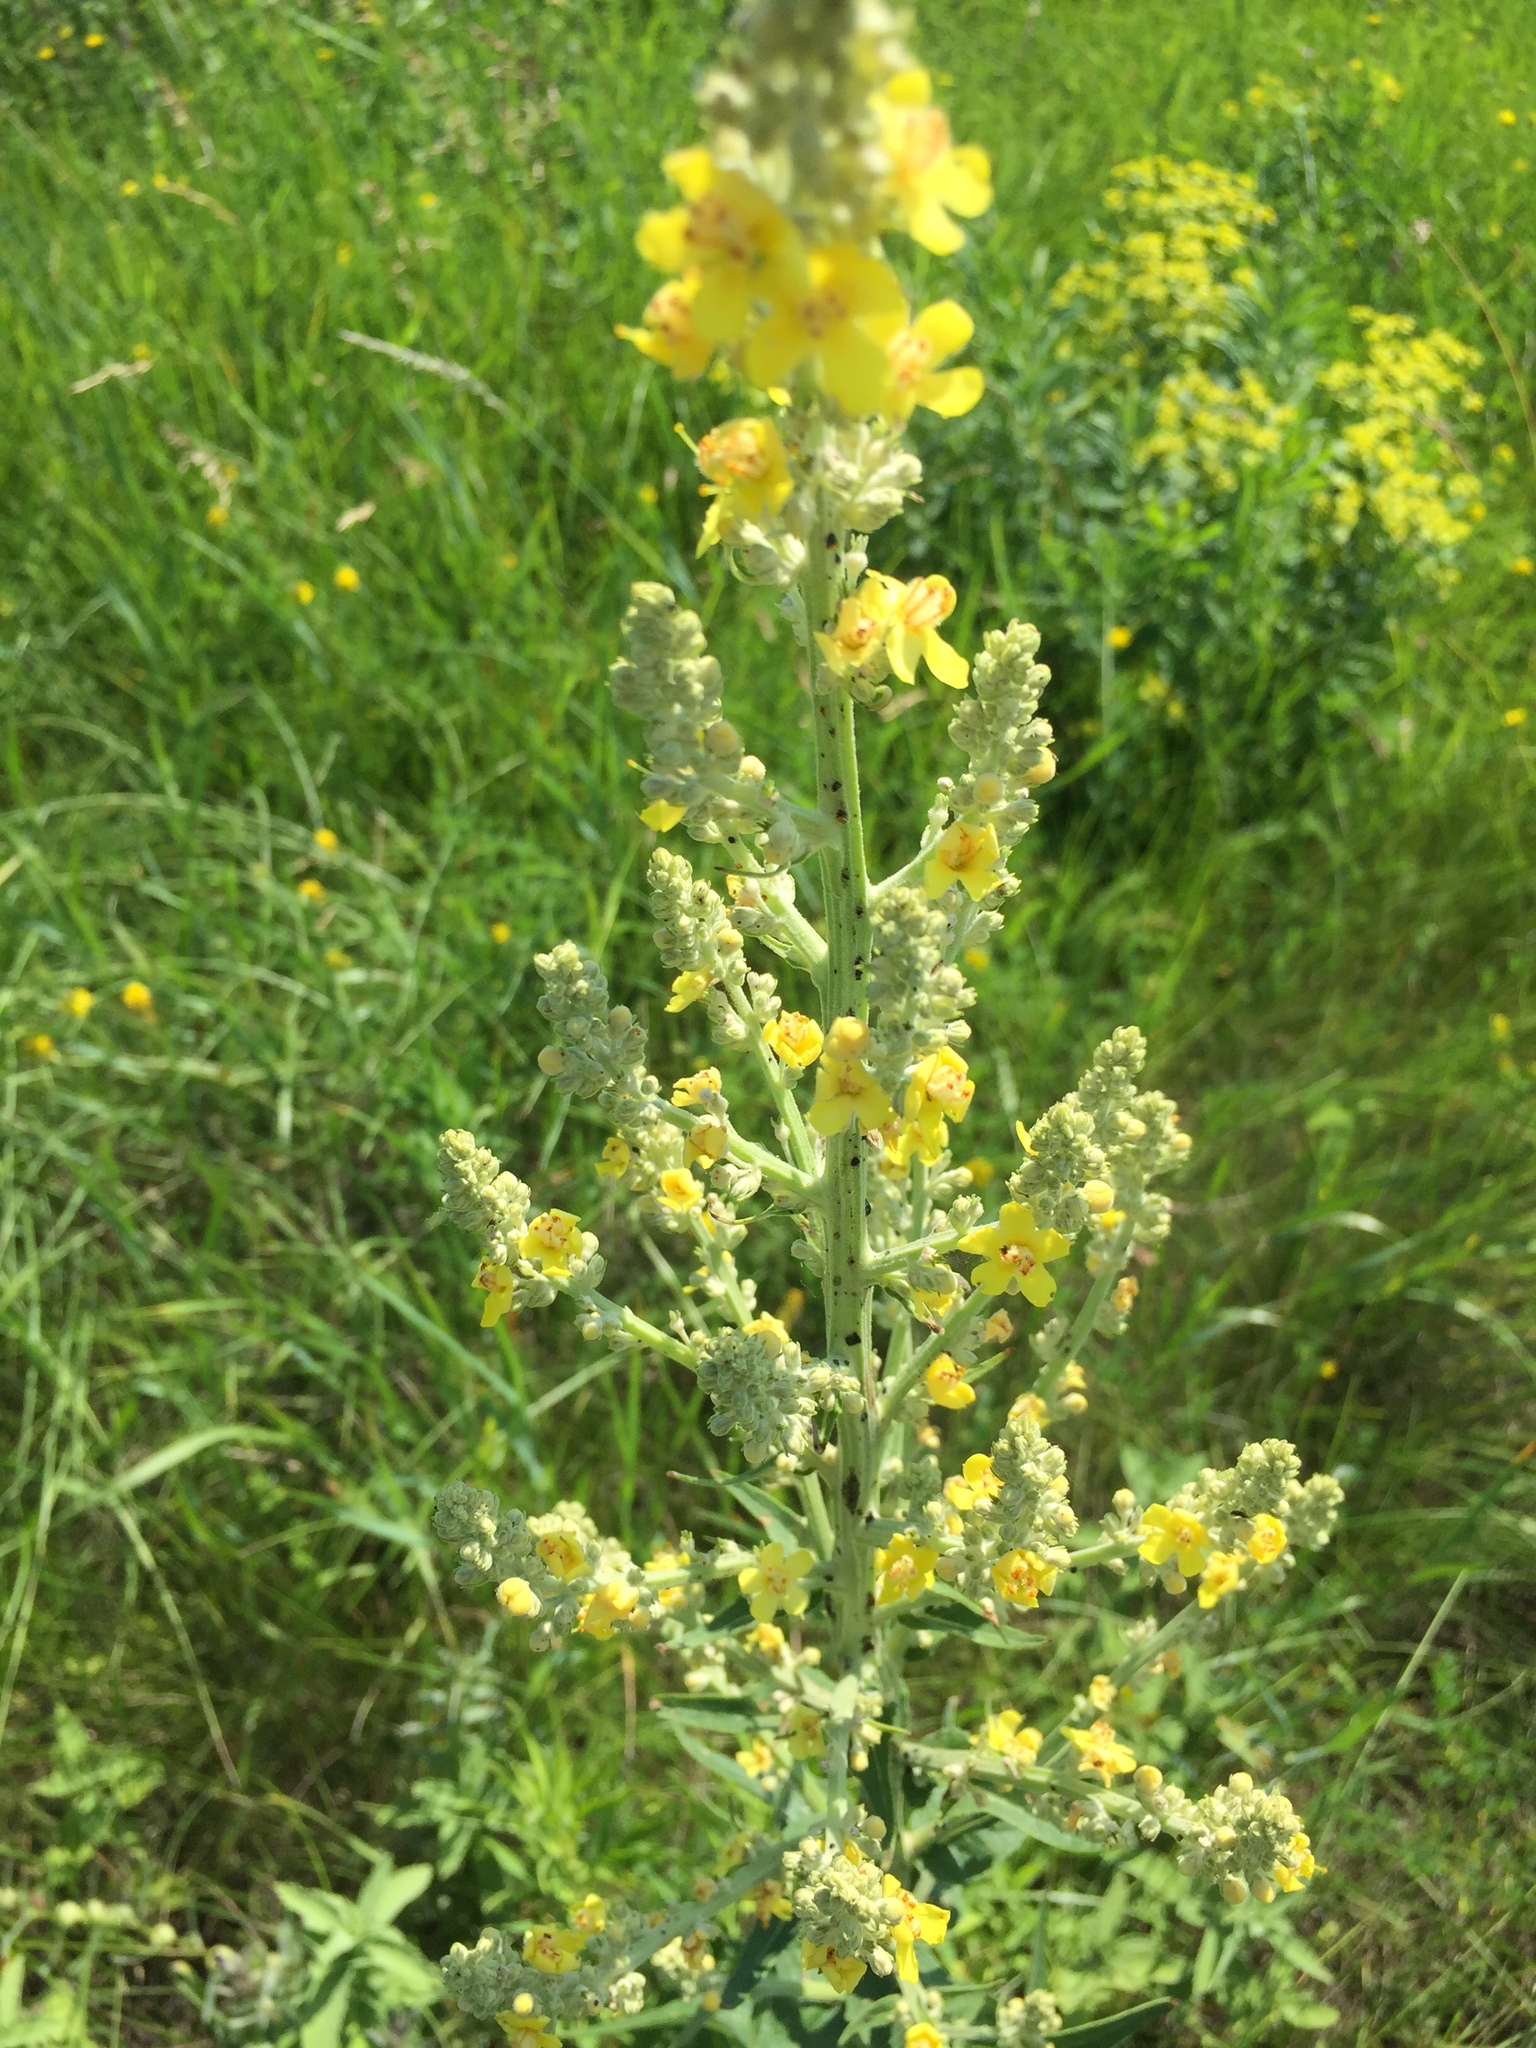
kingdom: Plantae
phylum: Tracheophyta
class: Magnoliopsida
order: Lamiales
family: Scrophulariaceae
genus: Verbascum
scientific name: Verbascum lychnitis
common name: White mullein
